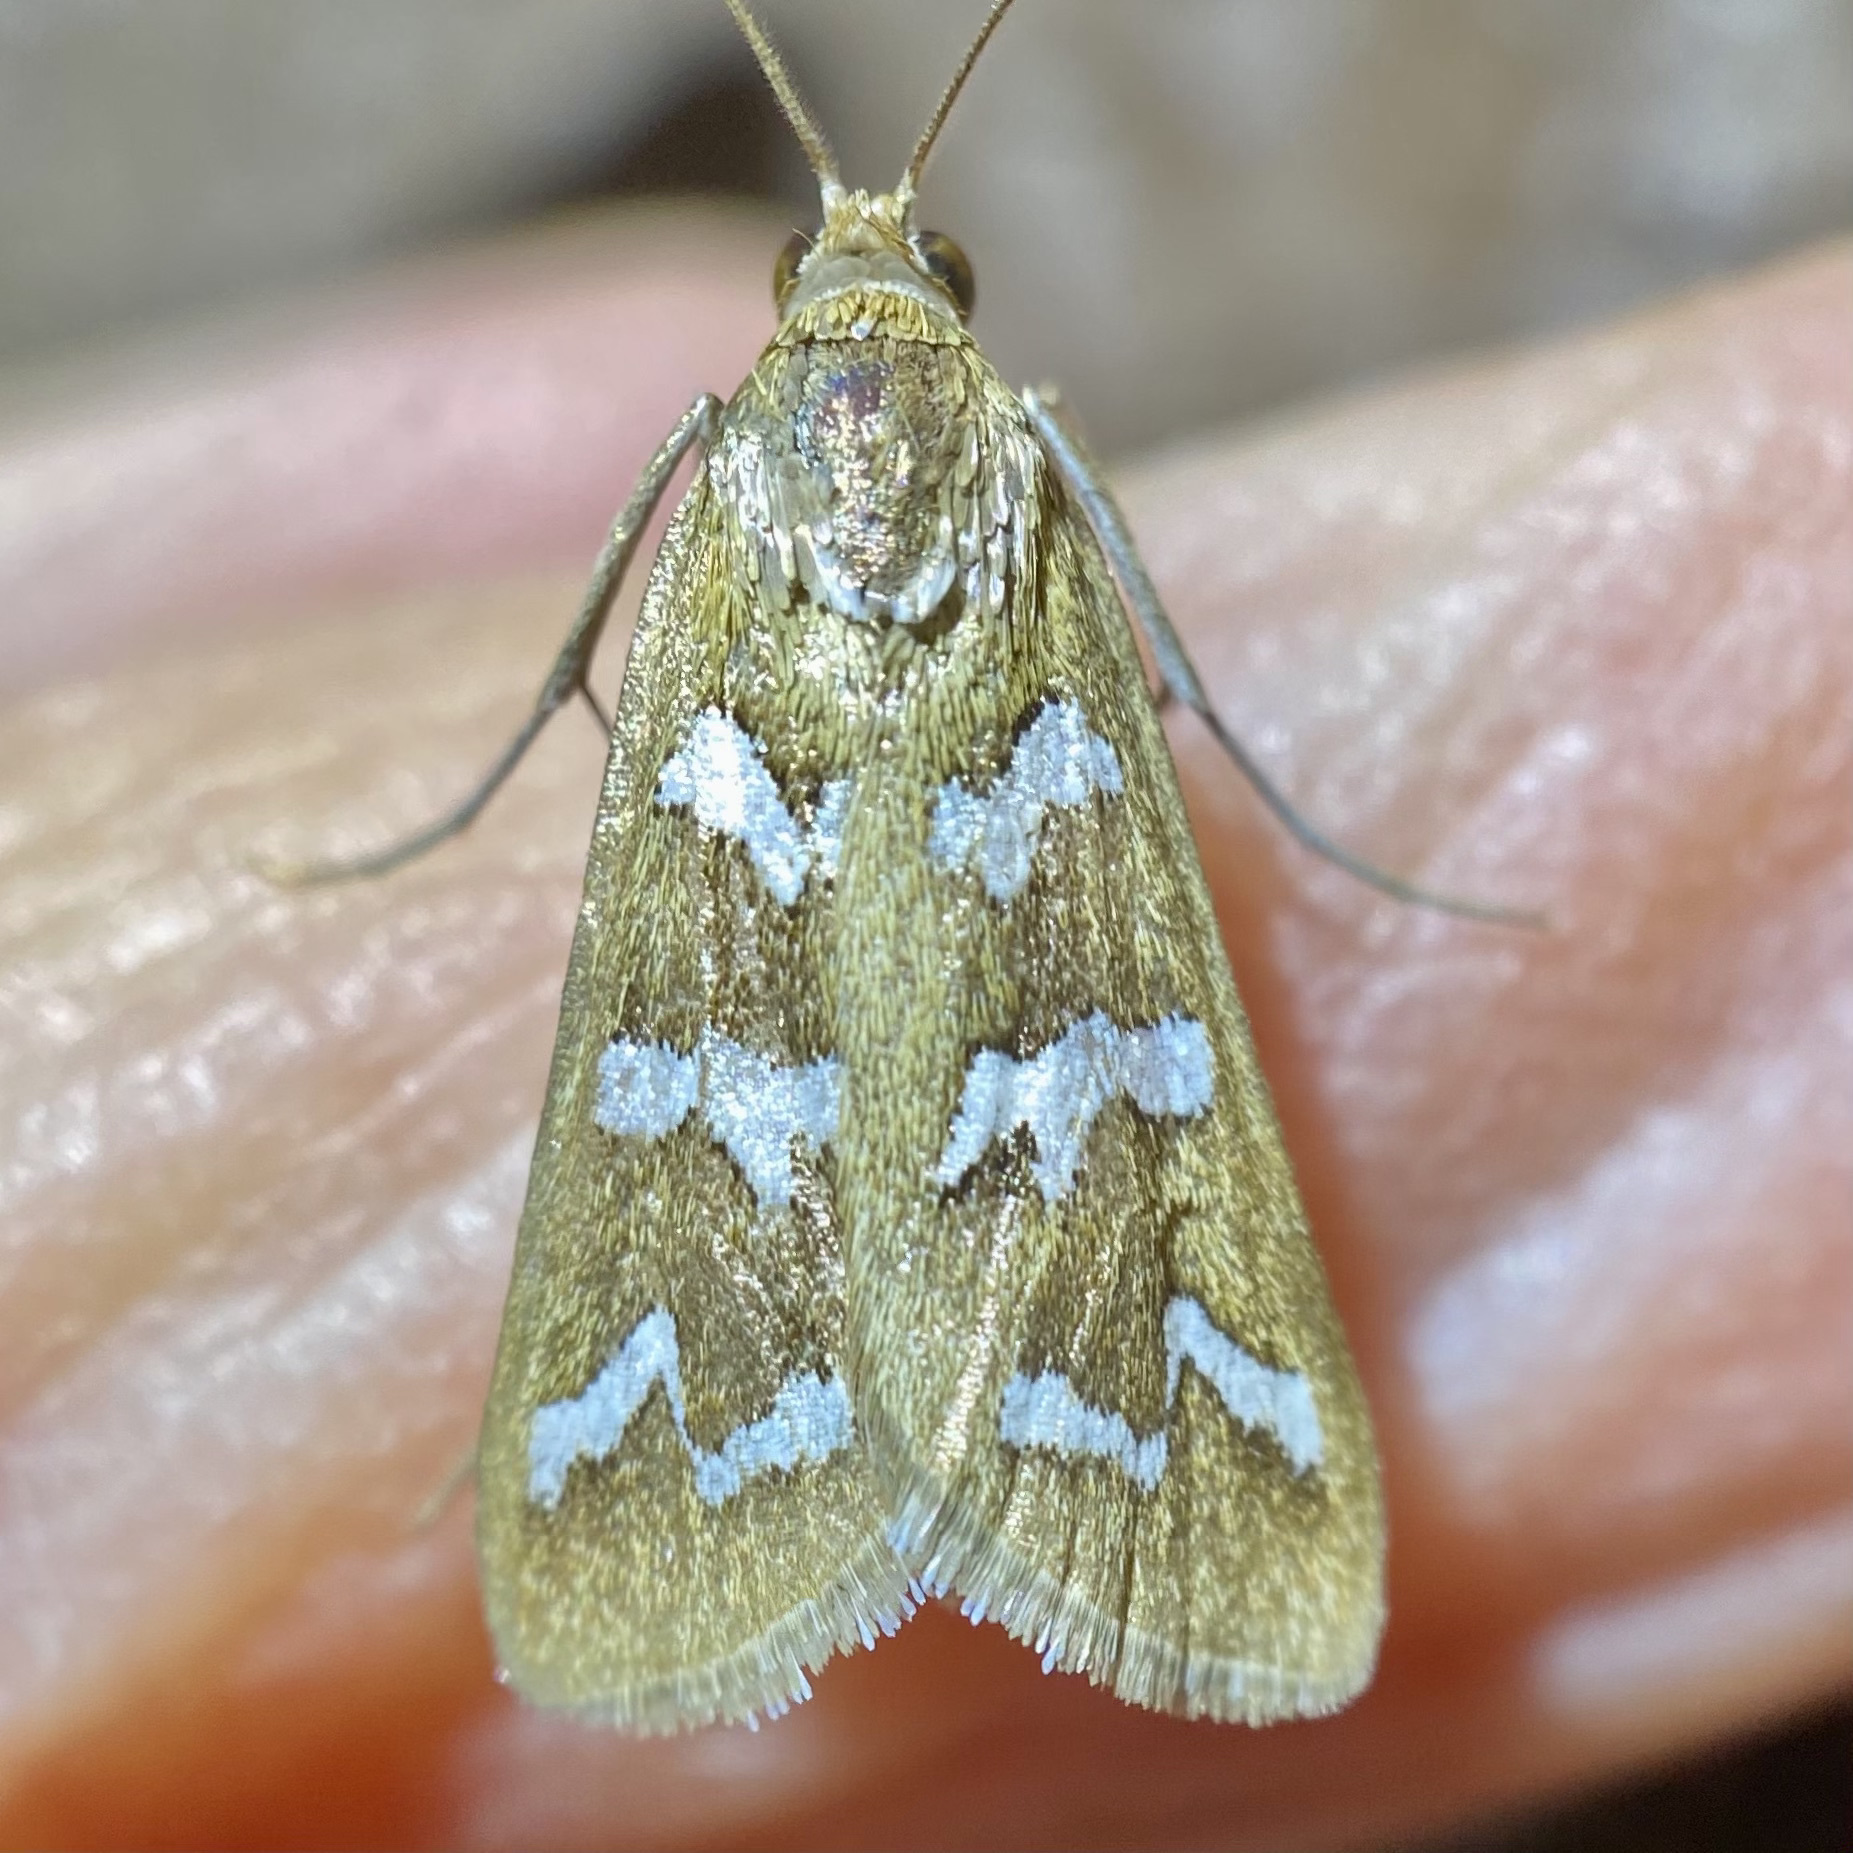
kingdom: Animalia
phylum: Arthropoda
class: Insecta
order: Lepidoptera
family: Crambidae
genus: Diastictis
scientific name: Diastictis fracturalis
